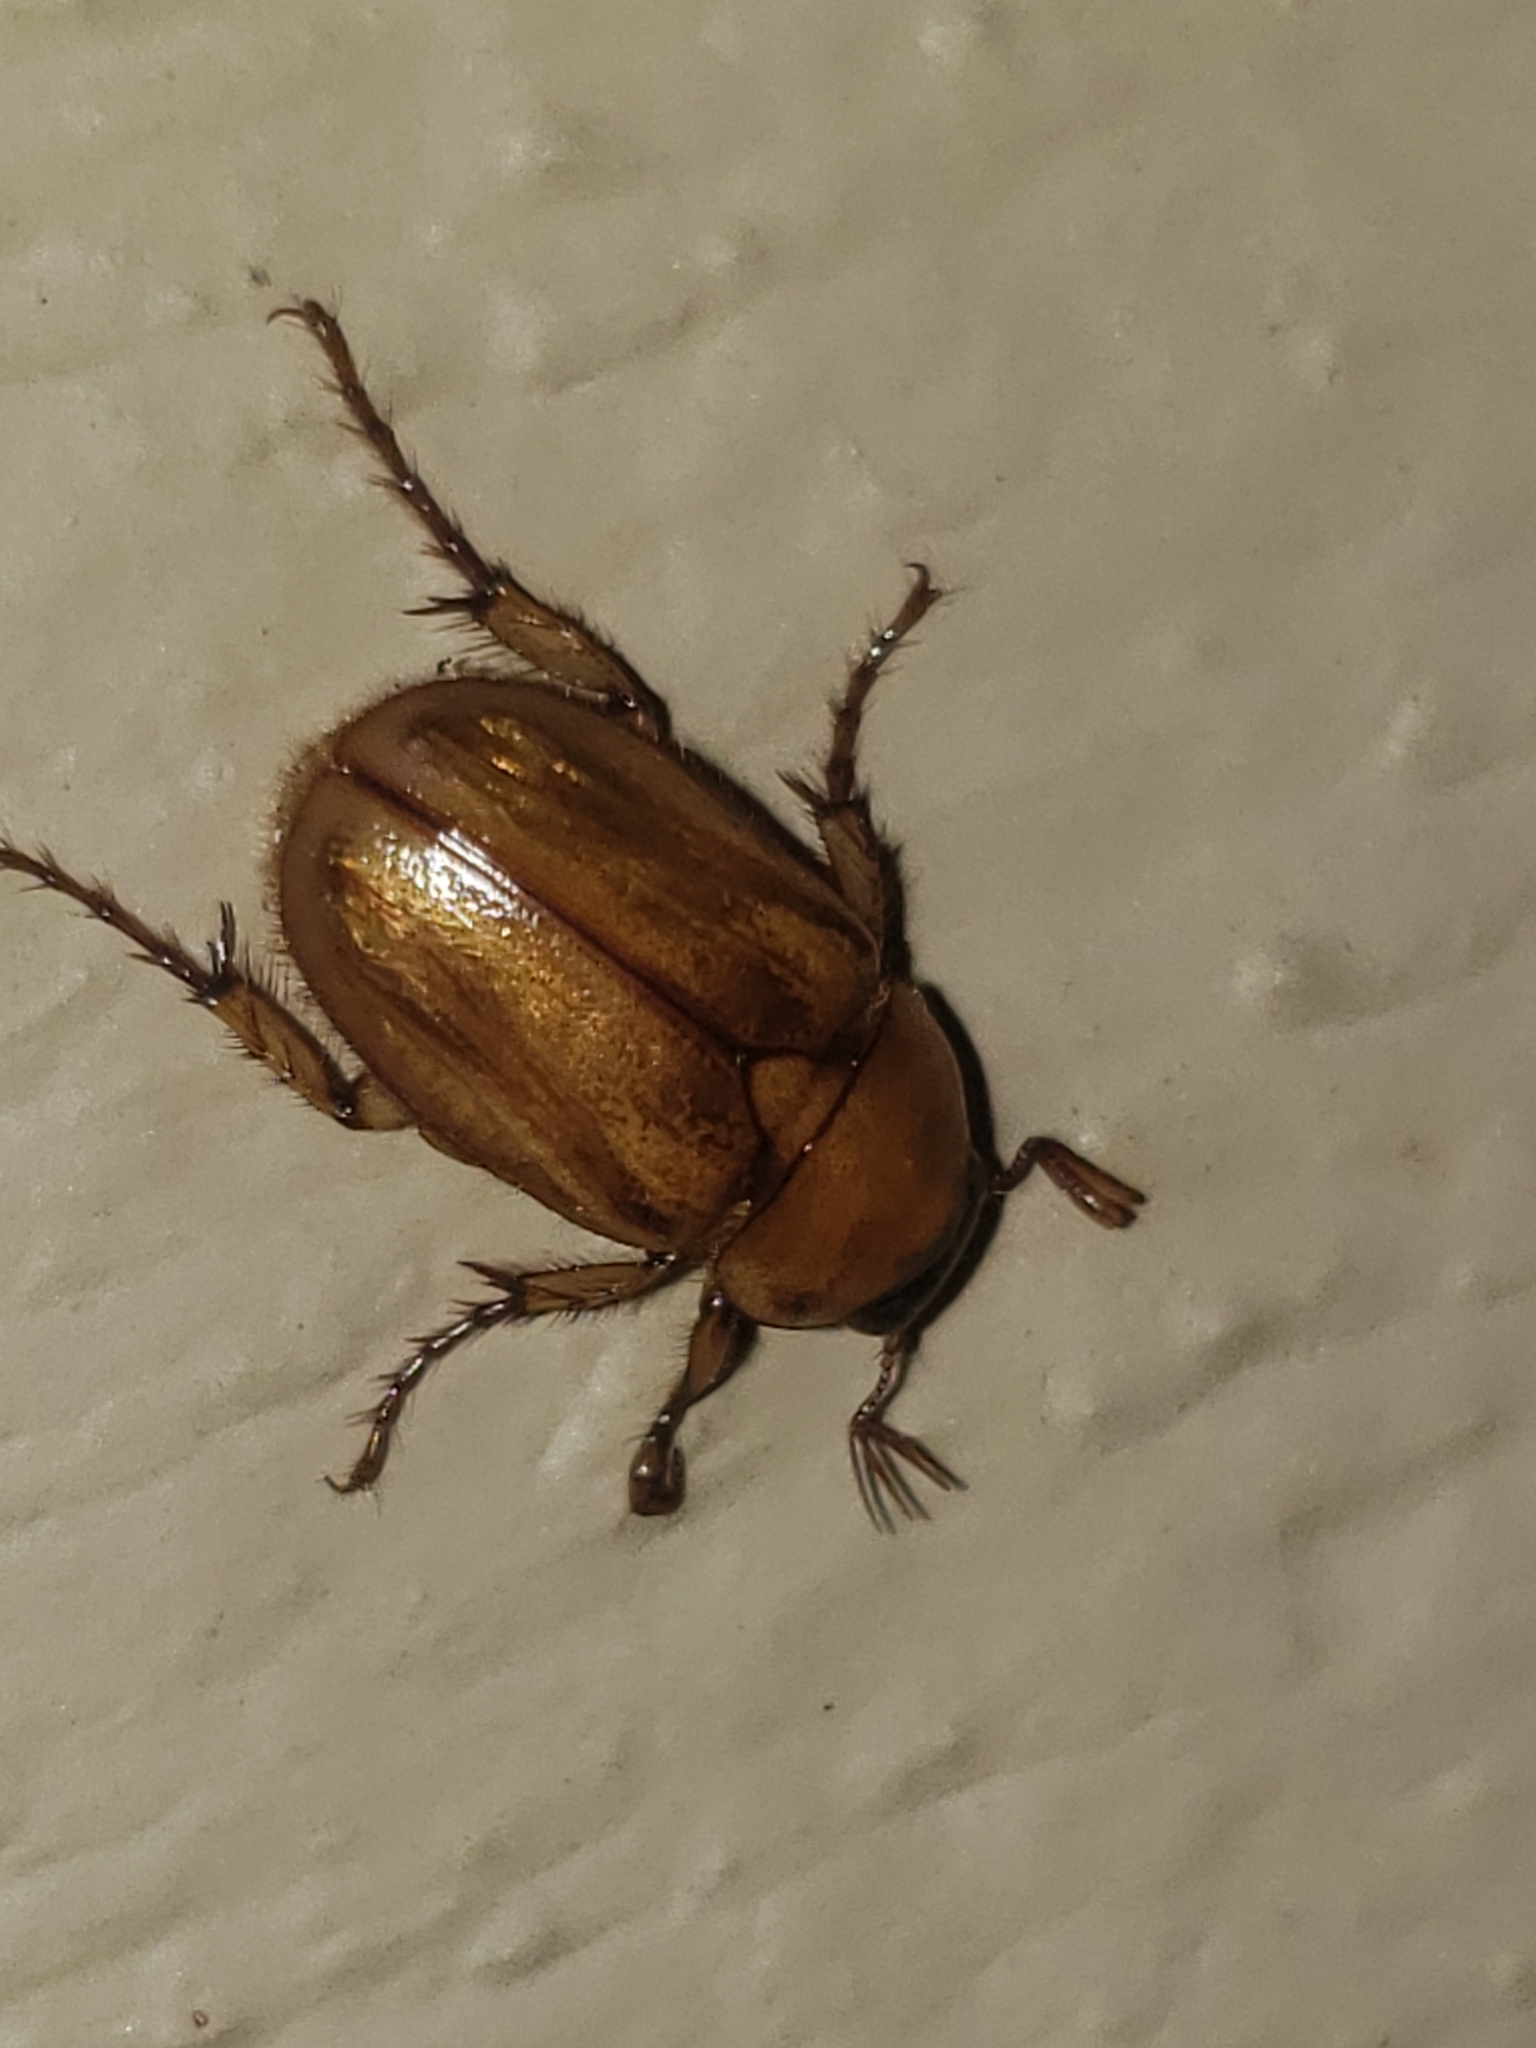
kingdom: Animalia
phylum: Arthropoda
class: Insecta
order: Coleoptera
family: Scarabaeidae
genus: Cyclocephala
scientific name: Cyclocephala lurida
